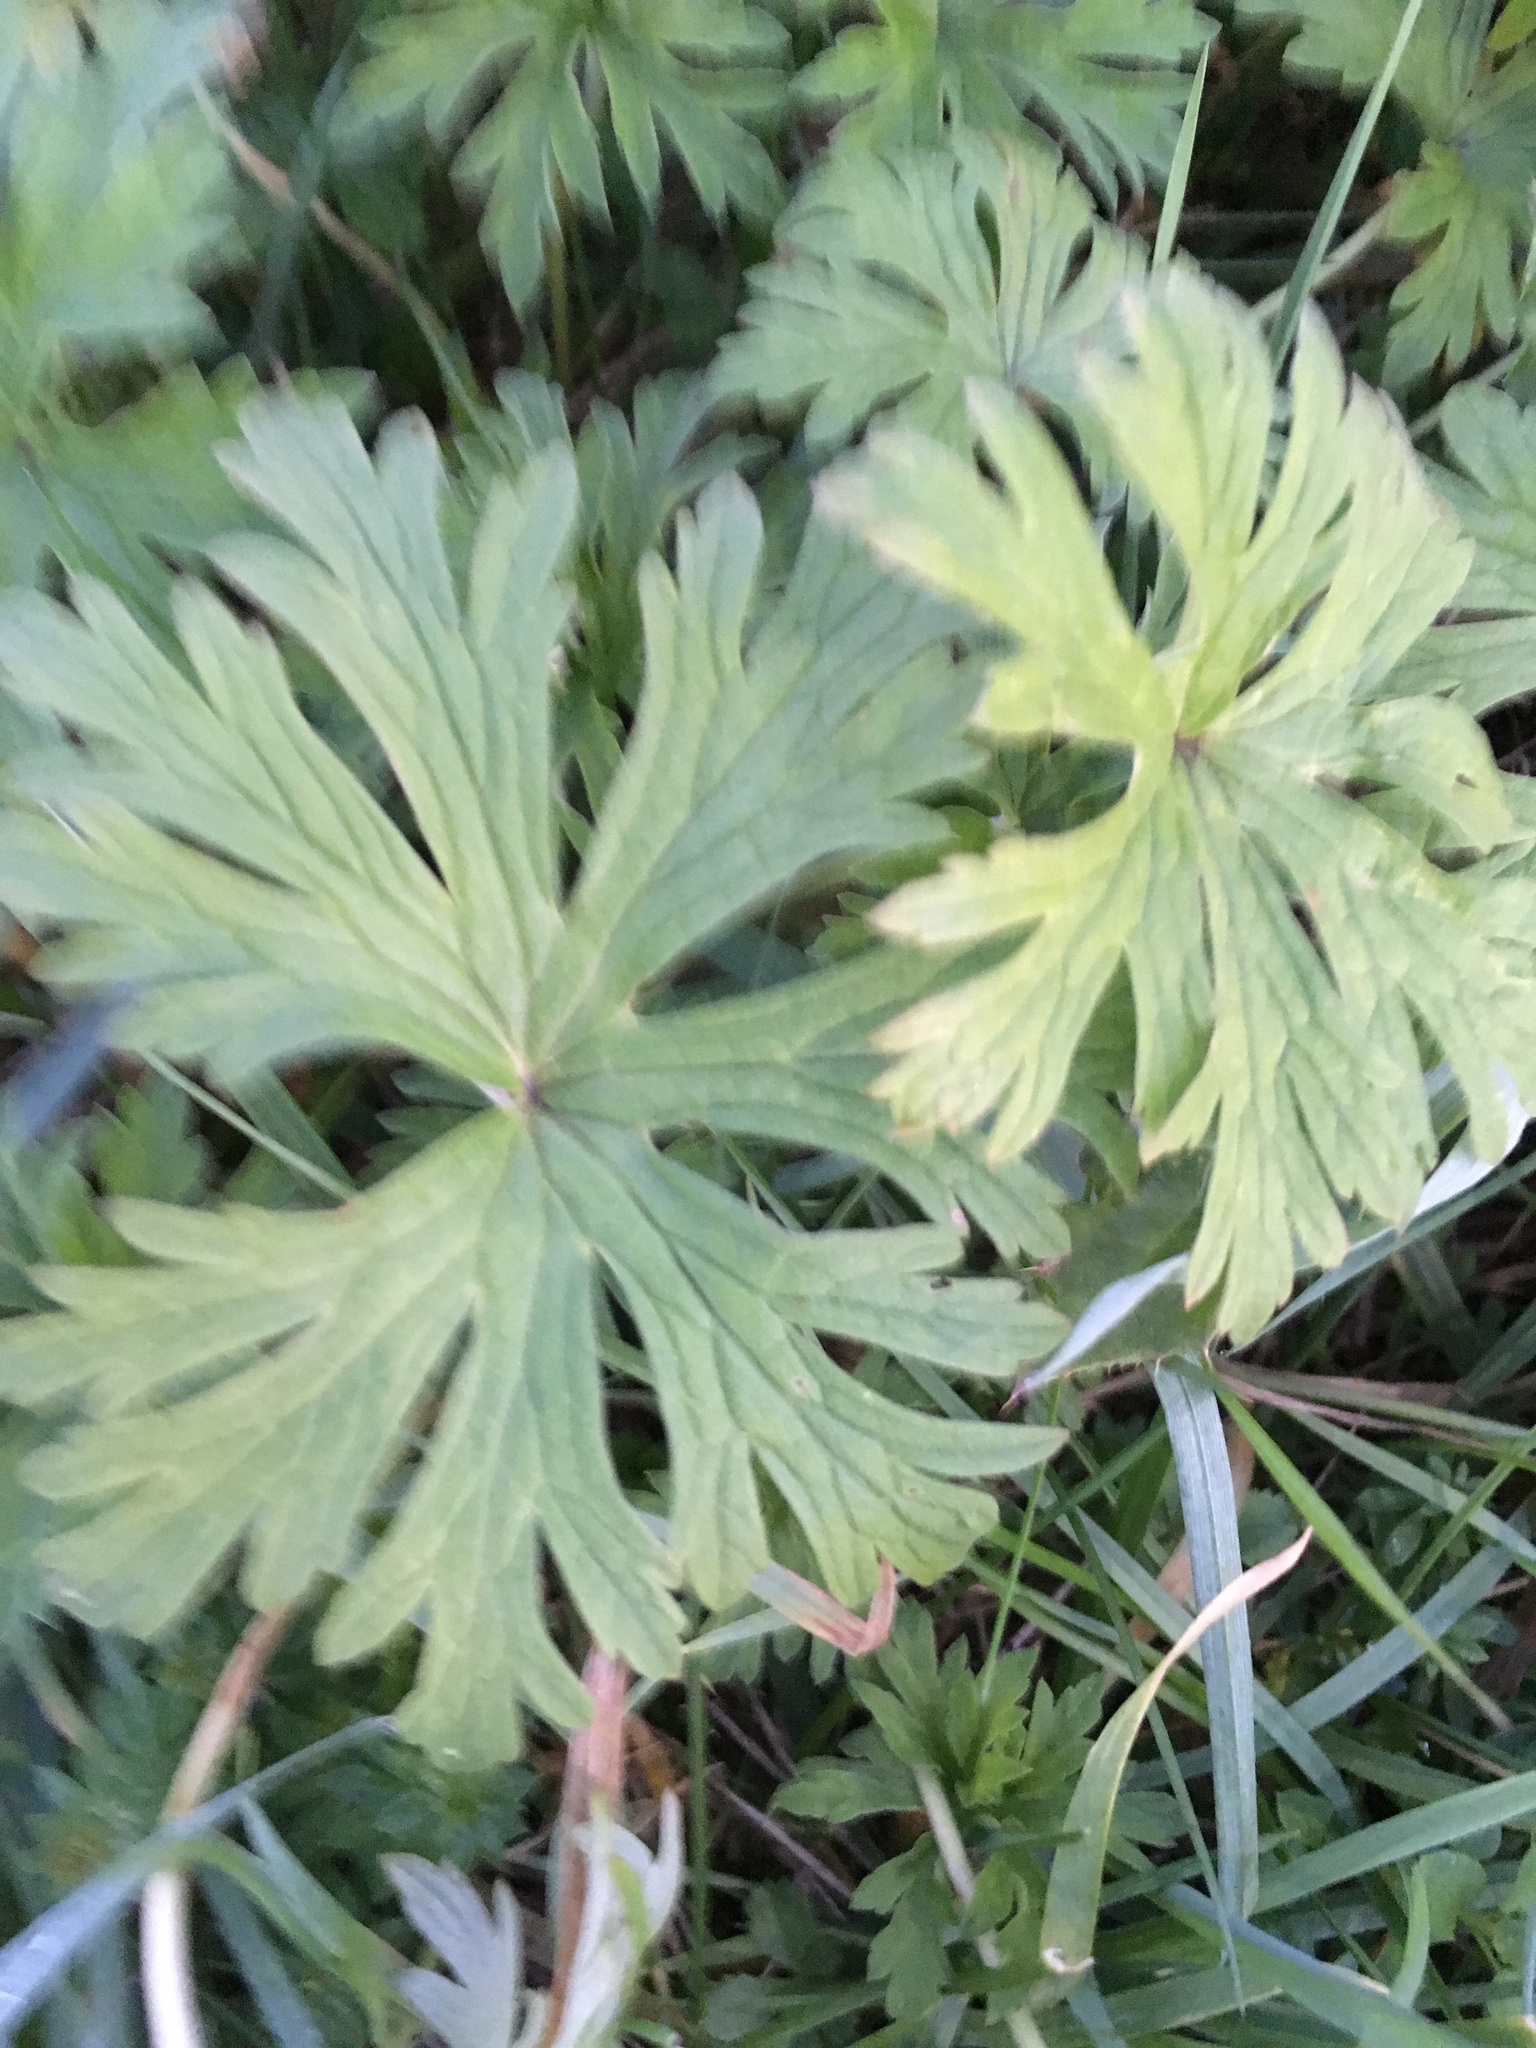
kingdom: Plantae
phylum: Tracheophyta
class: Magnoliopsida
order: Geraniales
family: Geraniaceae
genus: Geranium
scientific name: Geranium pratense
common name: Meadow crane's-bill
